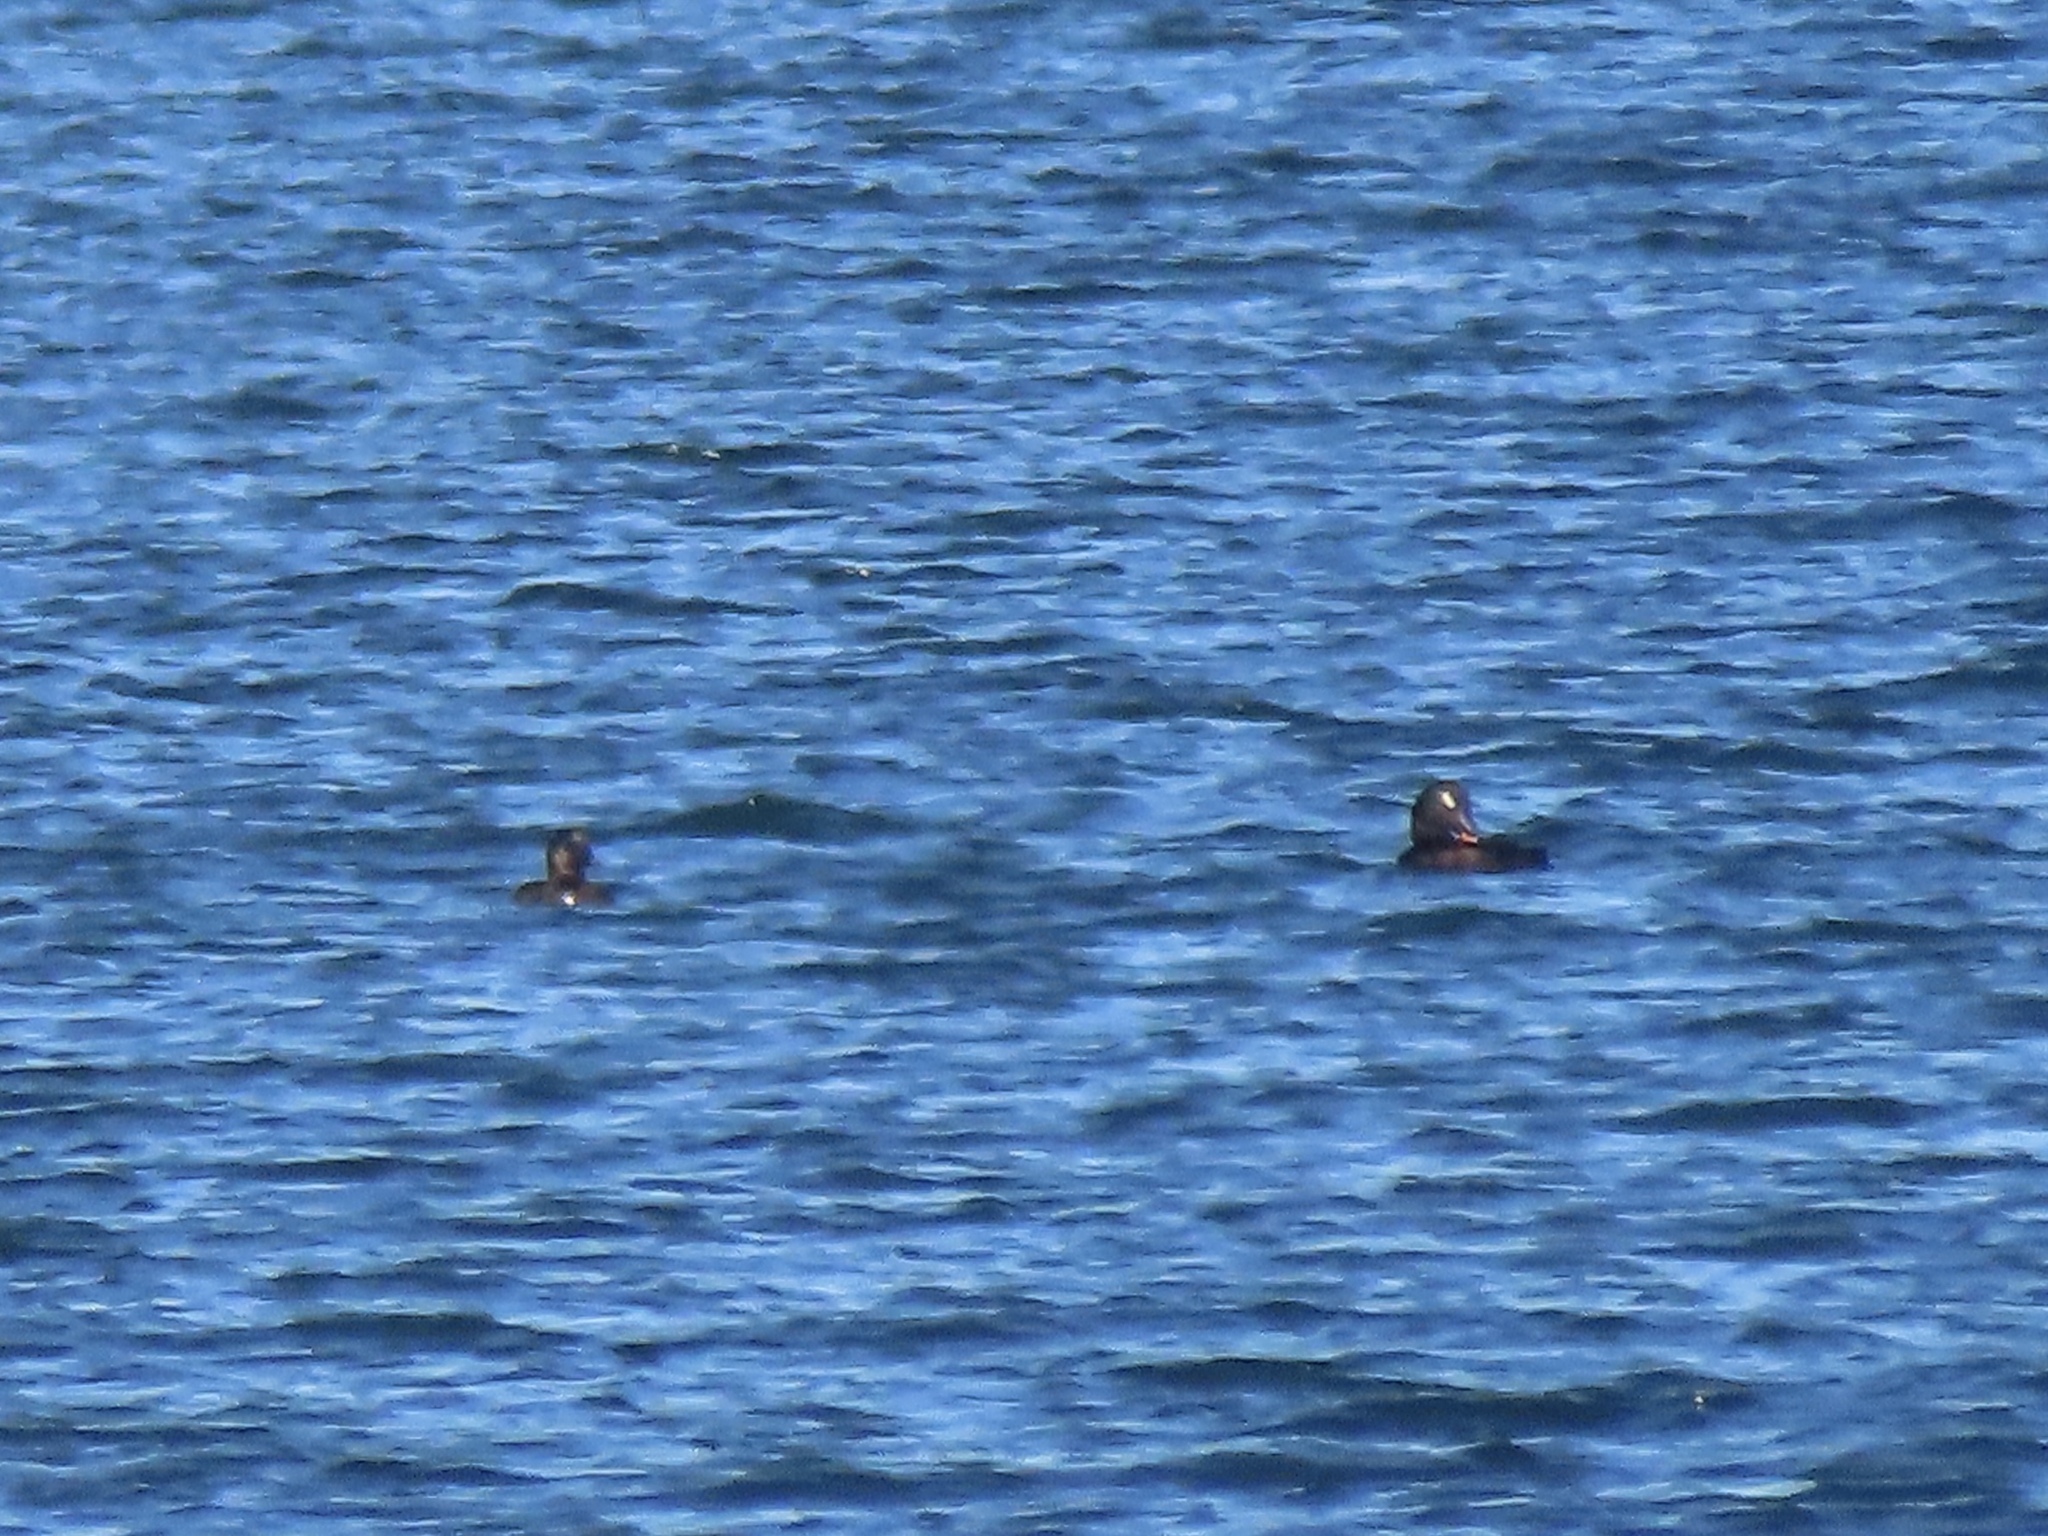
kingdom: Animalia
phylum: Chordata
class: Aves
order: Anseriformes
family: Anatidae
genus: Melanitta
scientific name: Melanitta deglandi
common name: White-winged scoter
